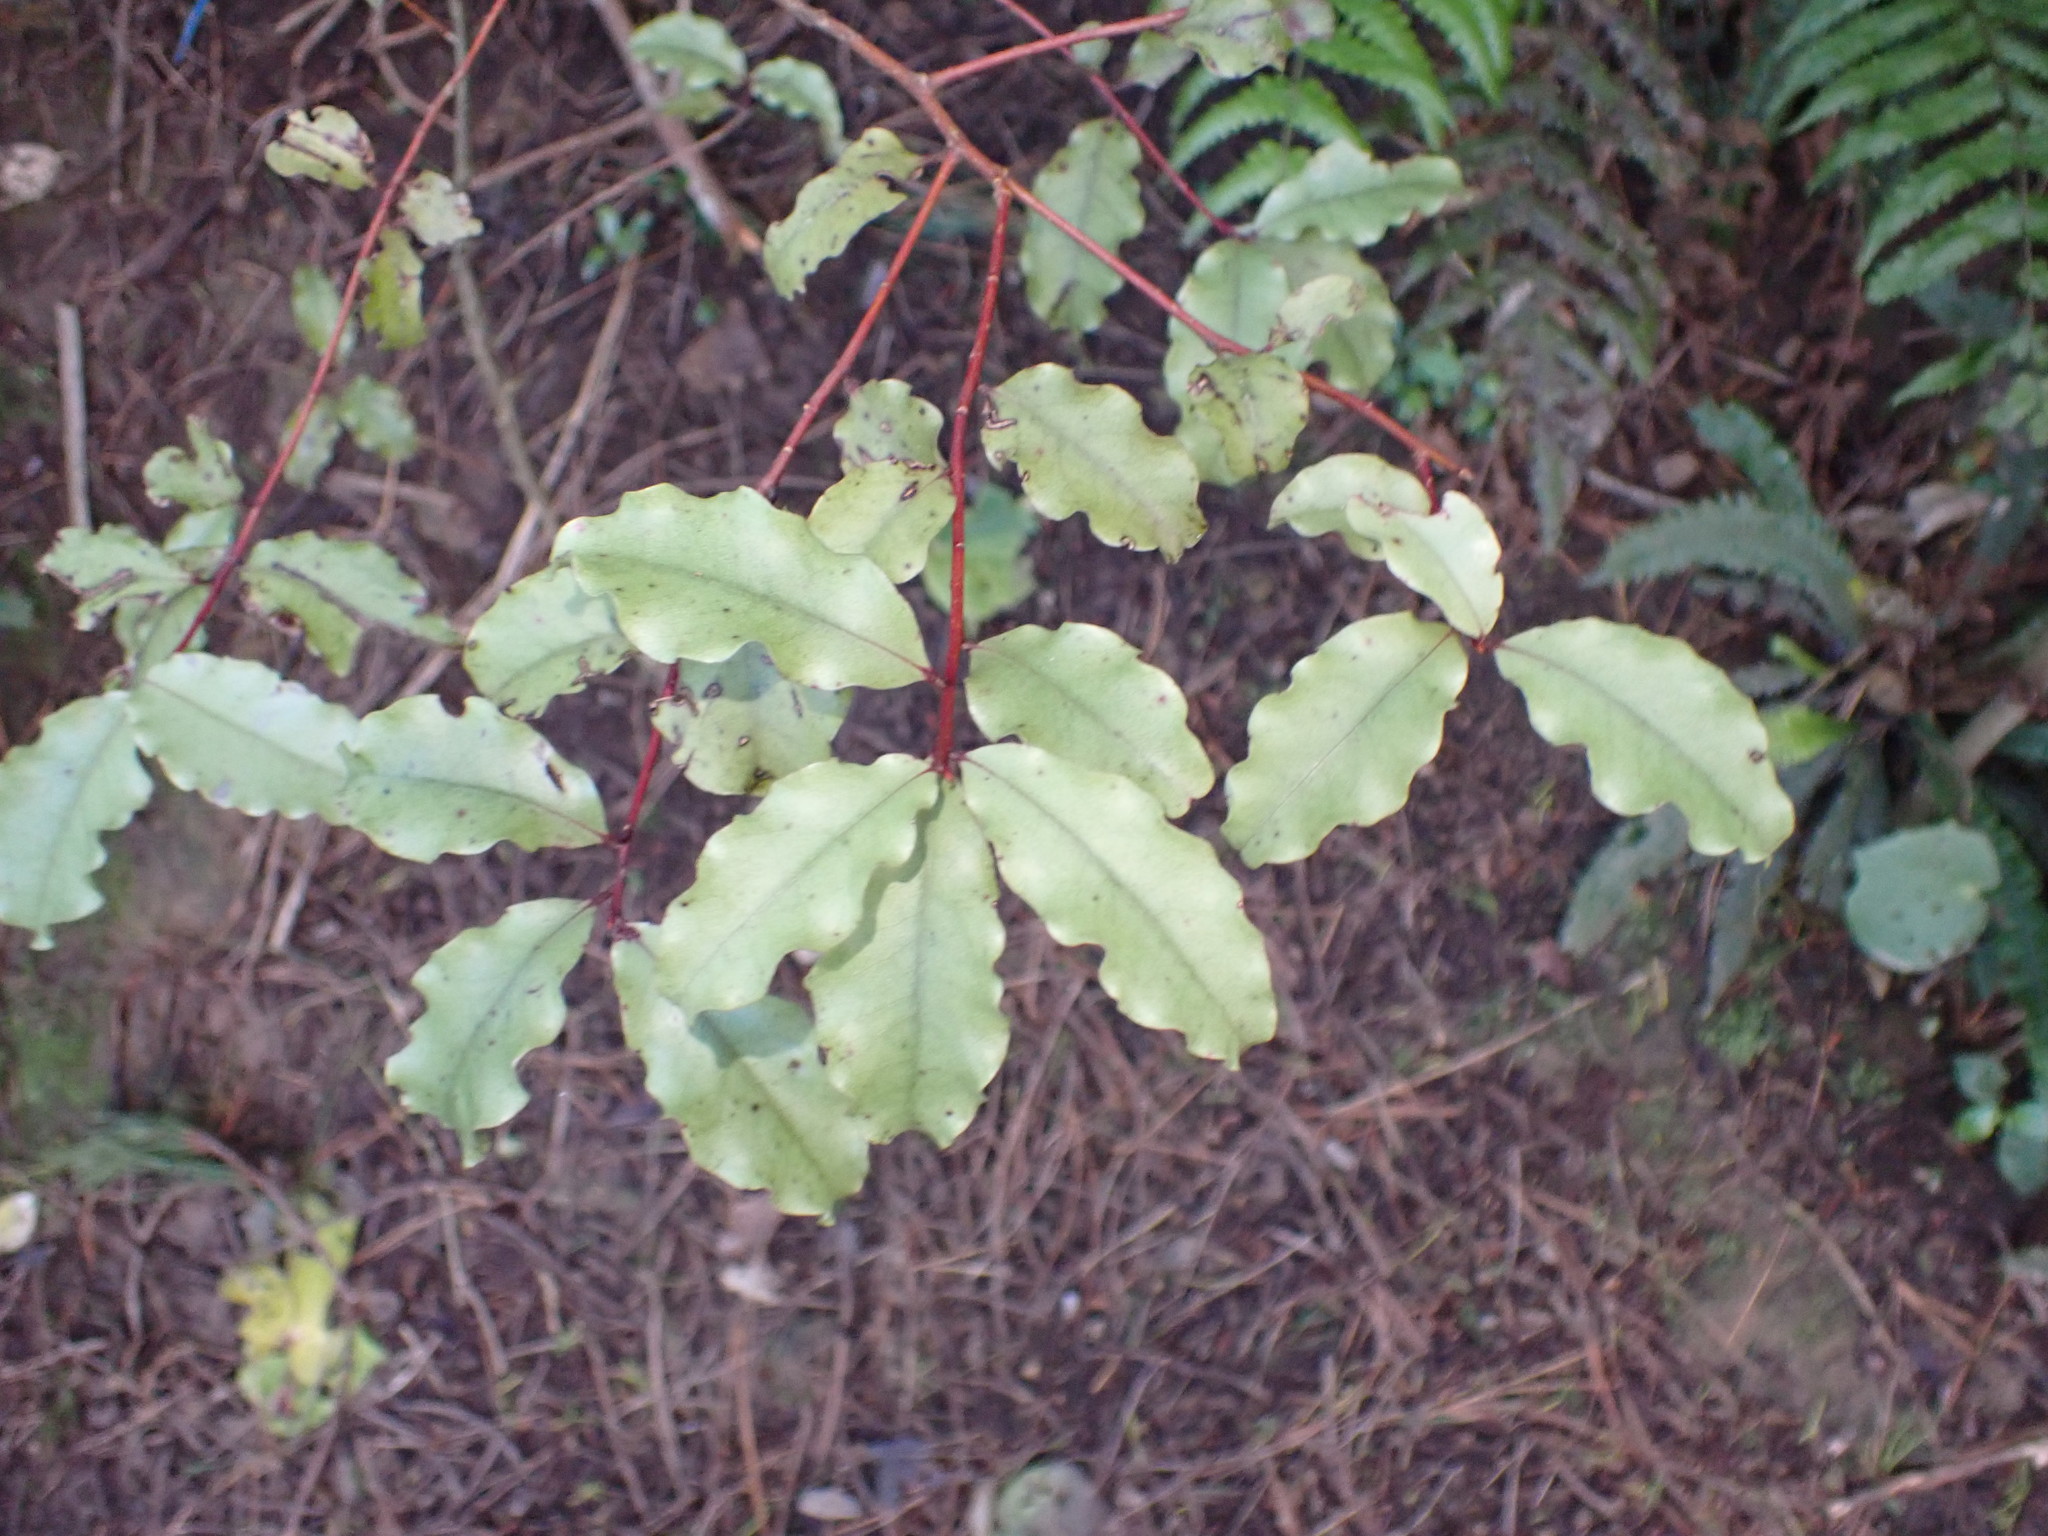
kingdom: Plantae
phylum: Tracheophyta
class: Magnoliopsida
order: Ericales
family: Primulaceae
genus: Myrsine
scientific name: Myrsine australis
